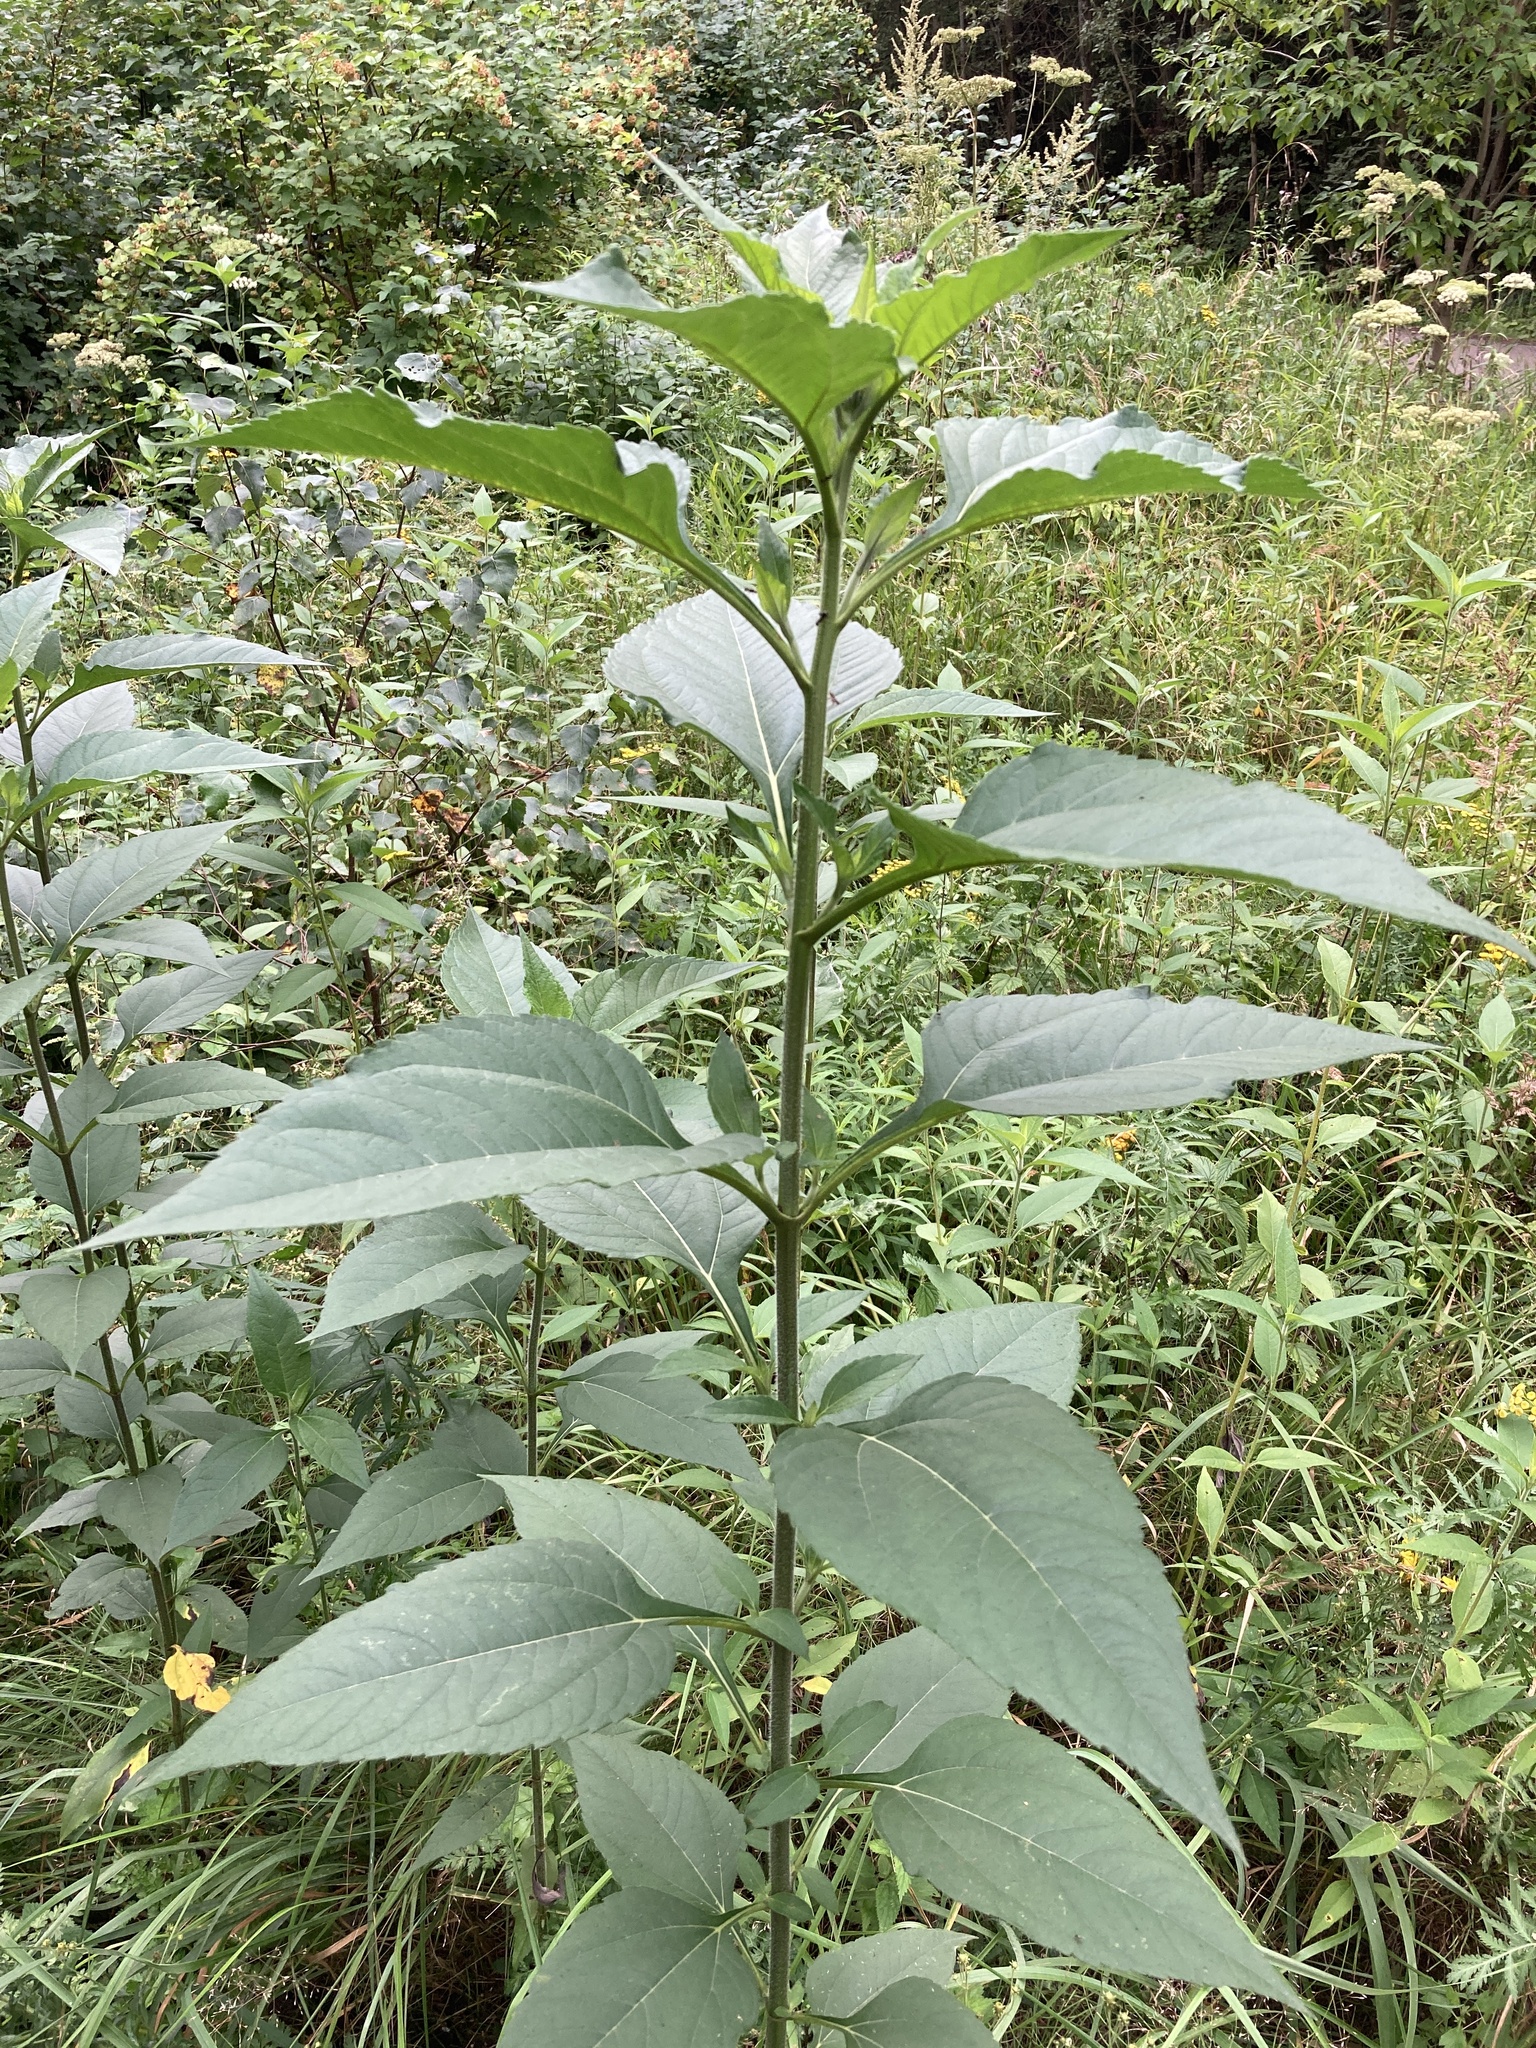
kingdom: Plantae
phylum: Tracheophyta
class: Magnoliopsida
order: Asterales
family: Asteraceae
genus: Helianthus
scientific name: Helianthus tuberosus
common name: Jerusalem artichoke
